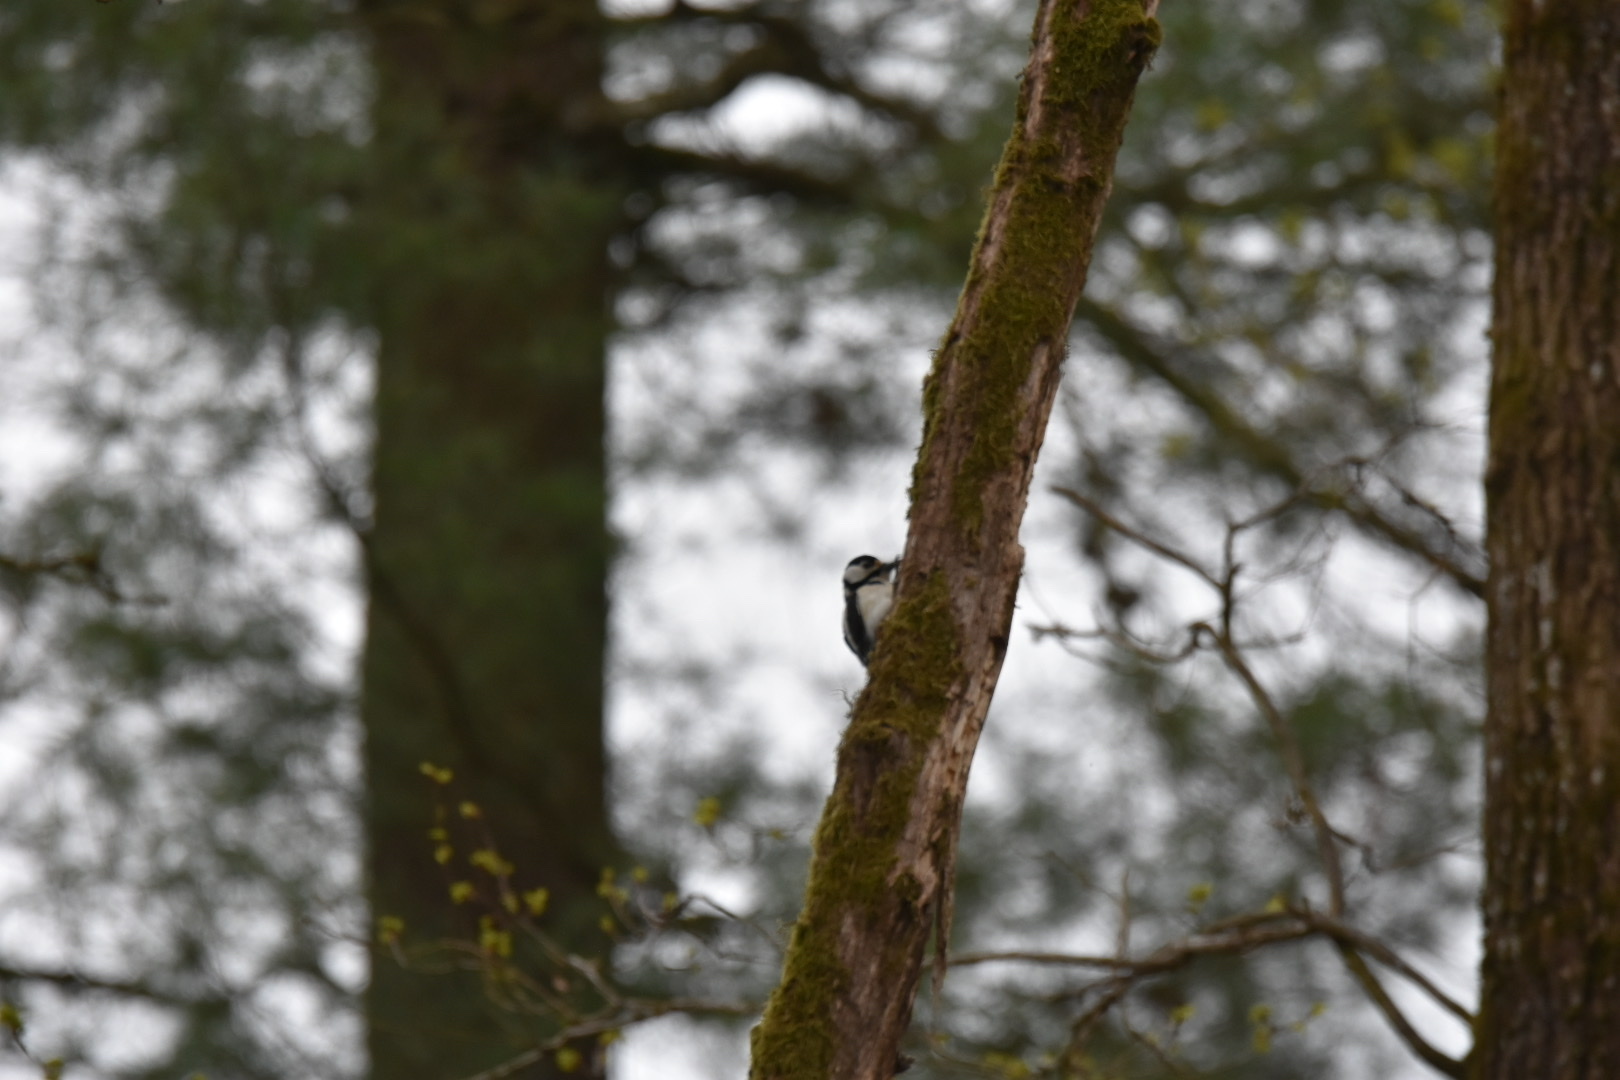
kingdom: Animalia
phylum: Chordata
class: Aves
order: Piciformes
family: Picidae
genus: Dendrocopos
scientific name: Dendrocopos major
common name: Great spotted woodpecker
